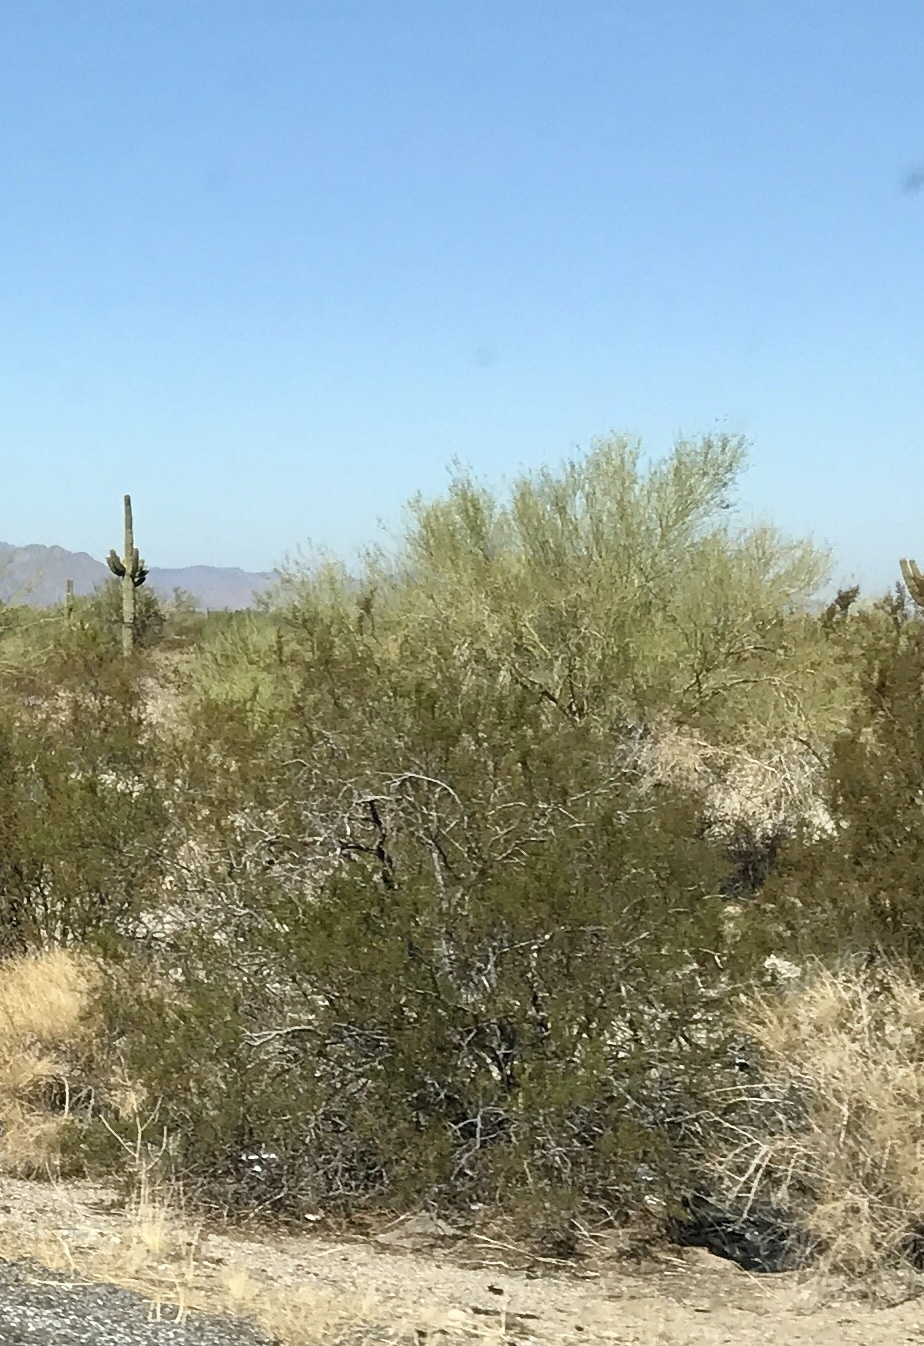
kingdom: Plantae
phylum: Tracheophyta
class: Magnoliopsida
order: Zygophyllales
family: Zygophyllaceae
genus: Larrea
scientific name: Larrea tridentata
